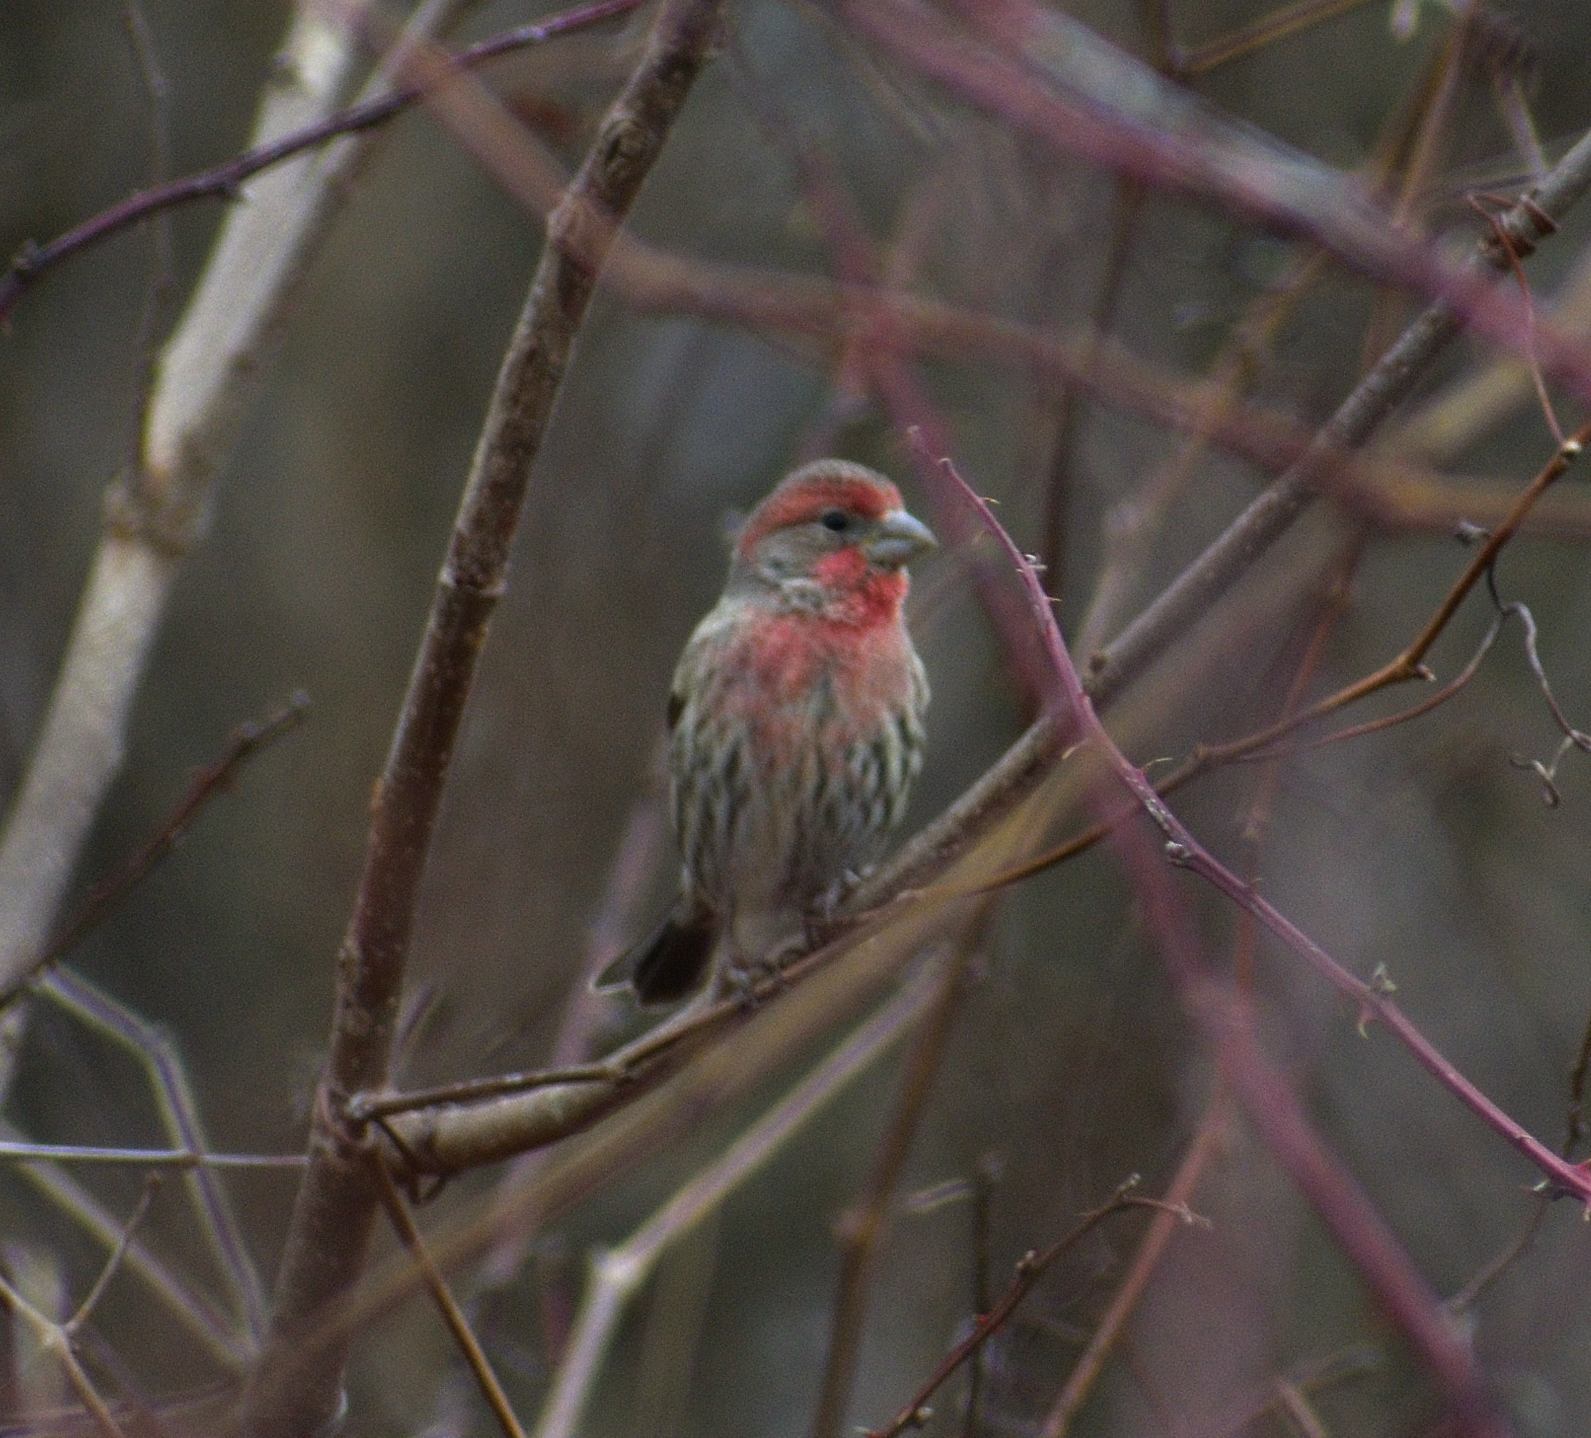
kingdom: Animalia
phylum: Chordata
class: Aves
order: Passeriformes
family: Fringillidae
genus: Haemorhous
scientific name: Haemorhous mexicanus
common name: House finch
